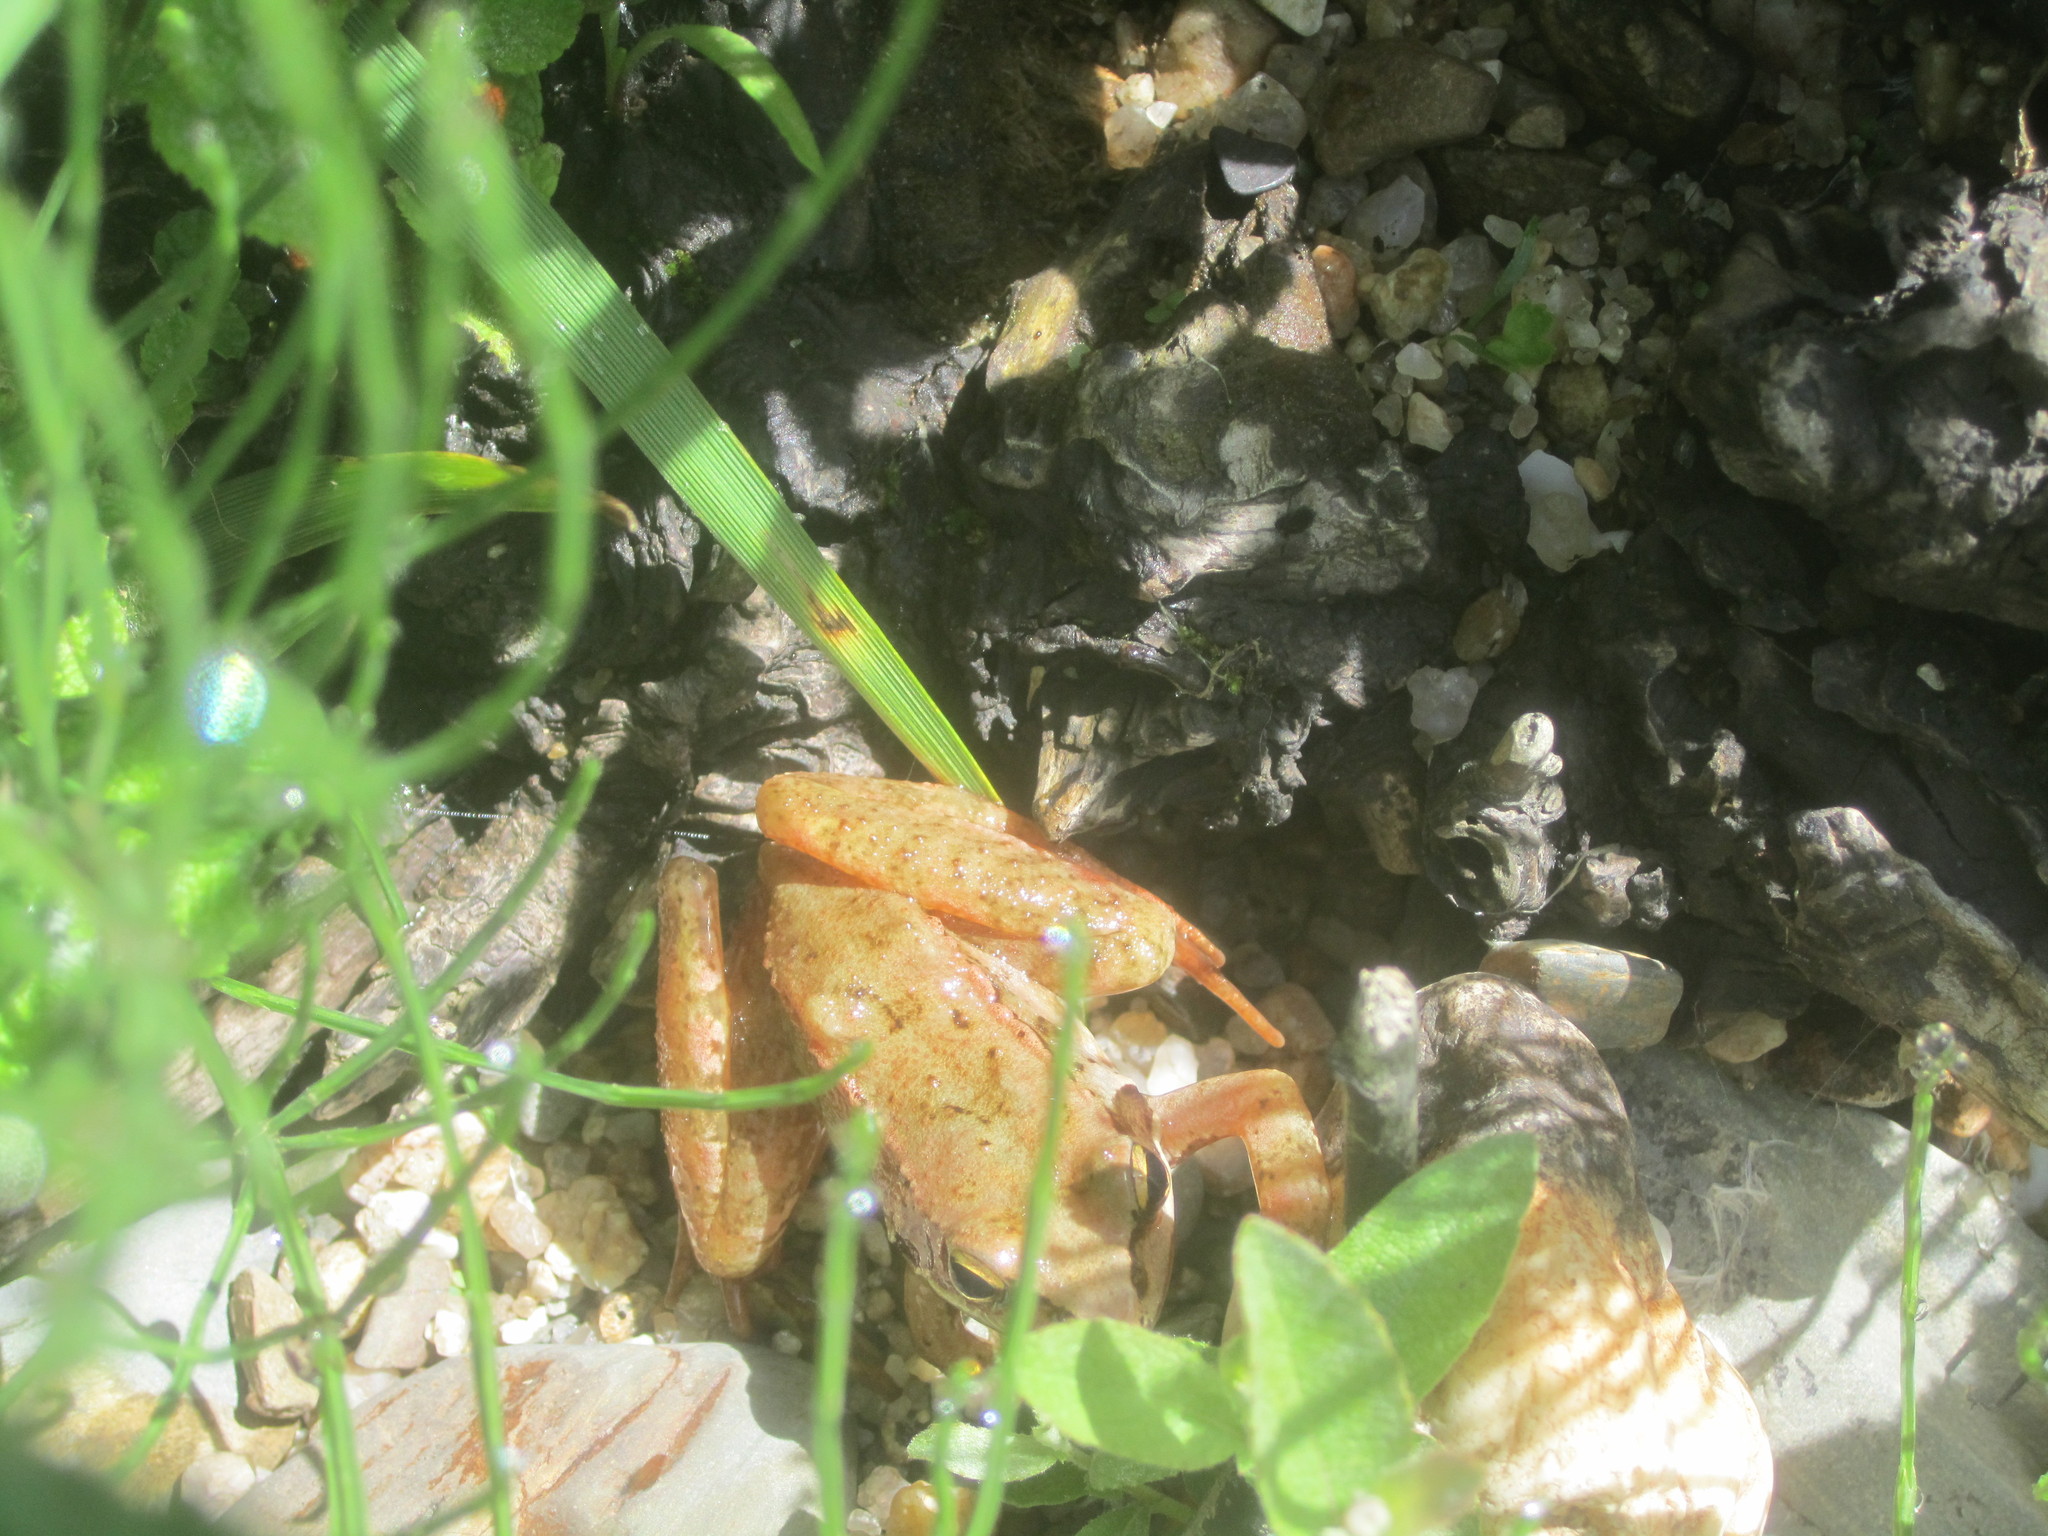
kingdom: Animalia
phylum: Chordata
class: Amphibia
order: Anura
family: Ranidae
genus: Rana
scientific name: Rana iberica
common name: Iberian frog
